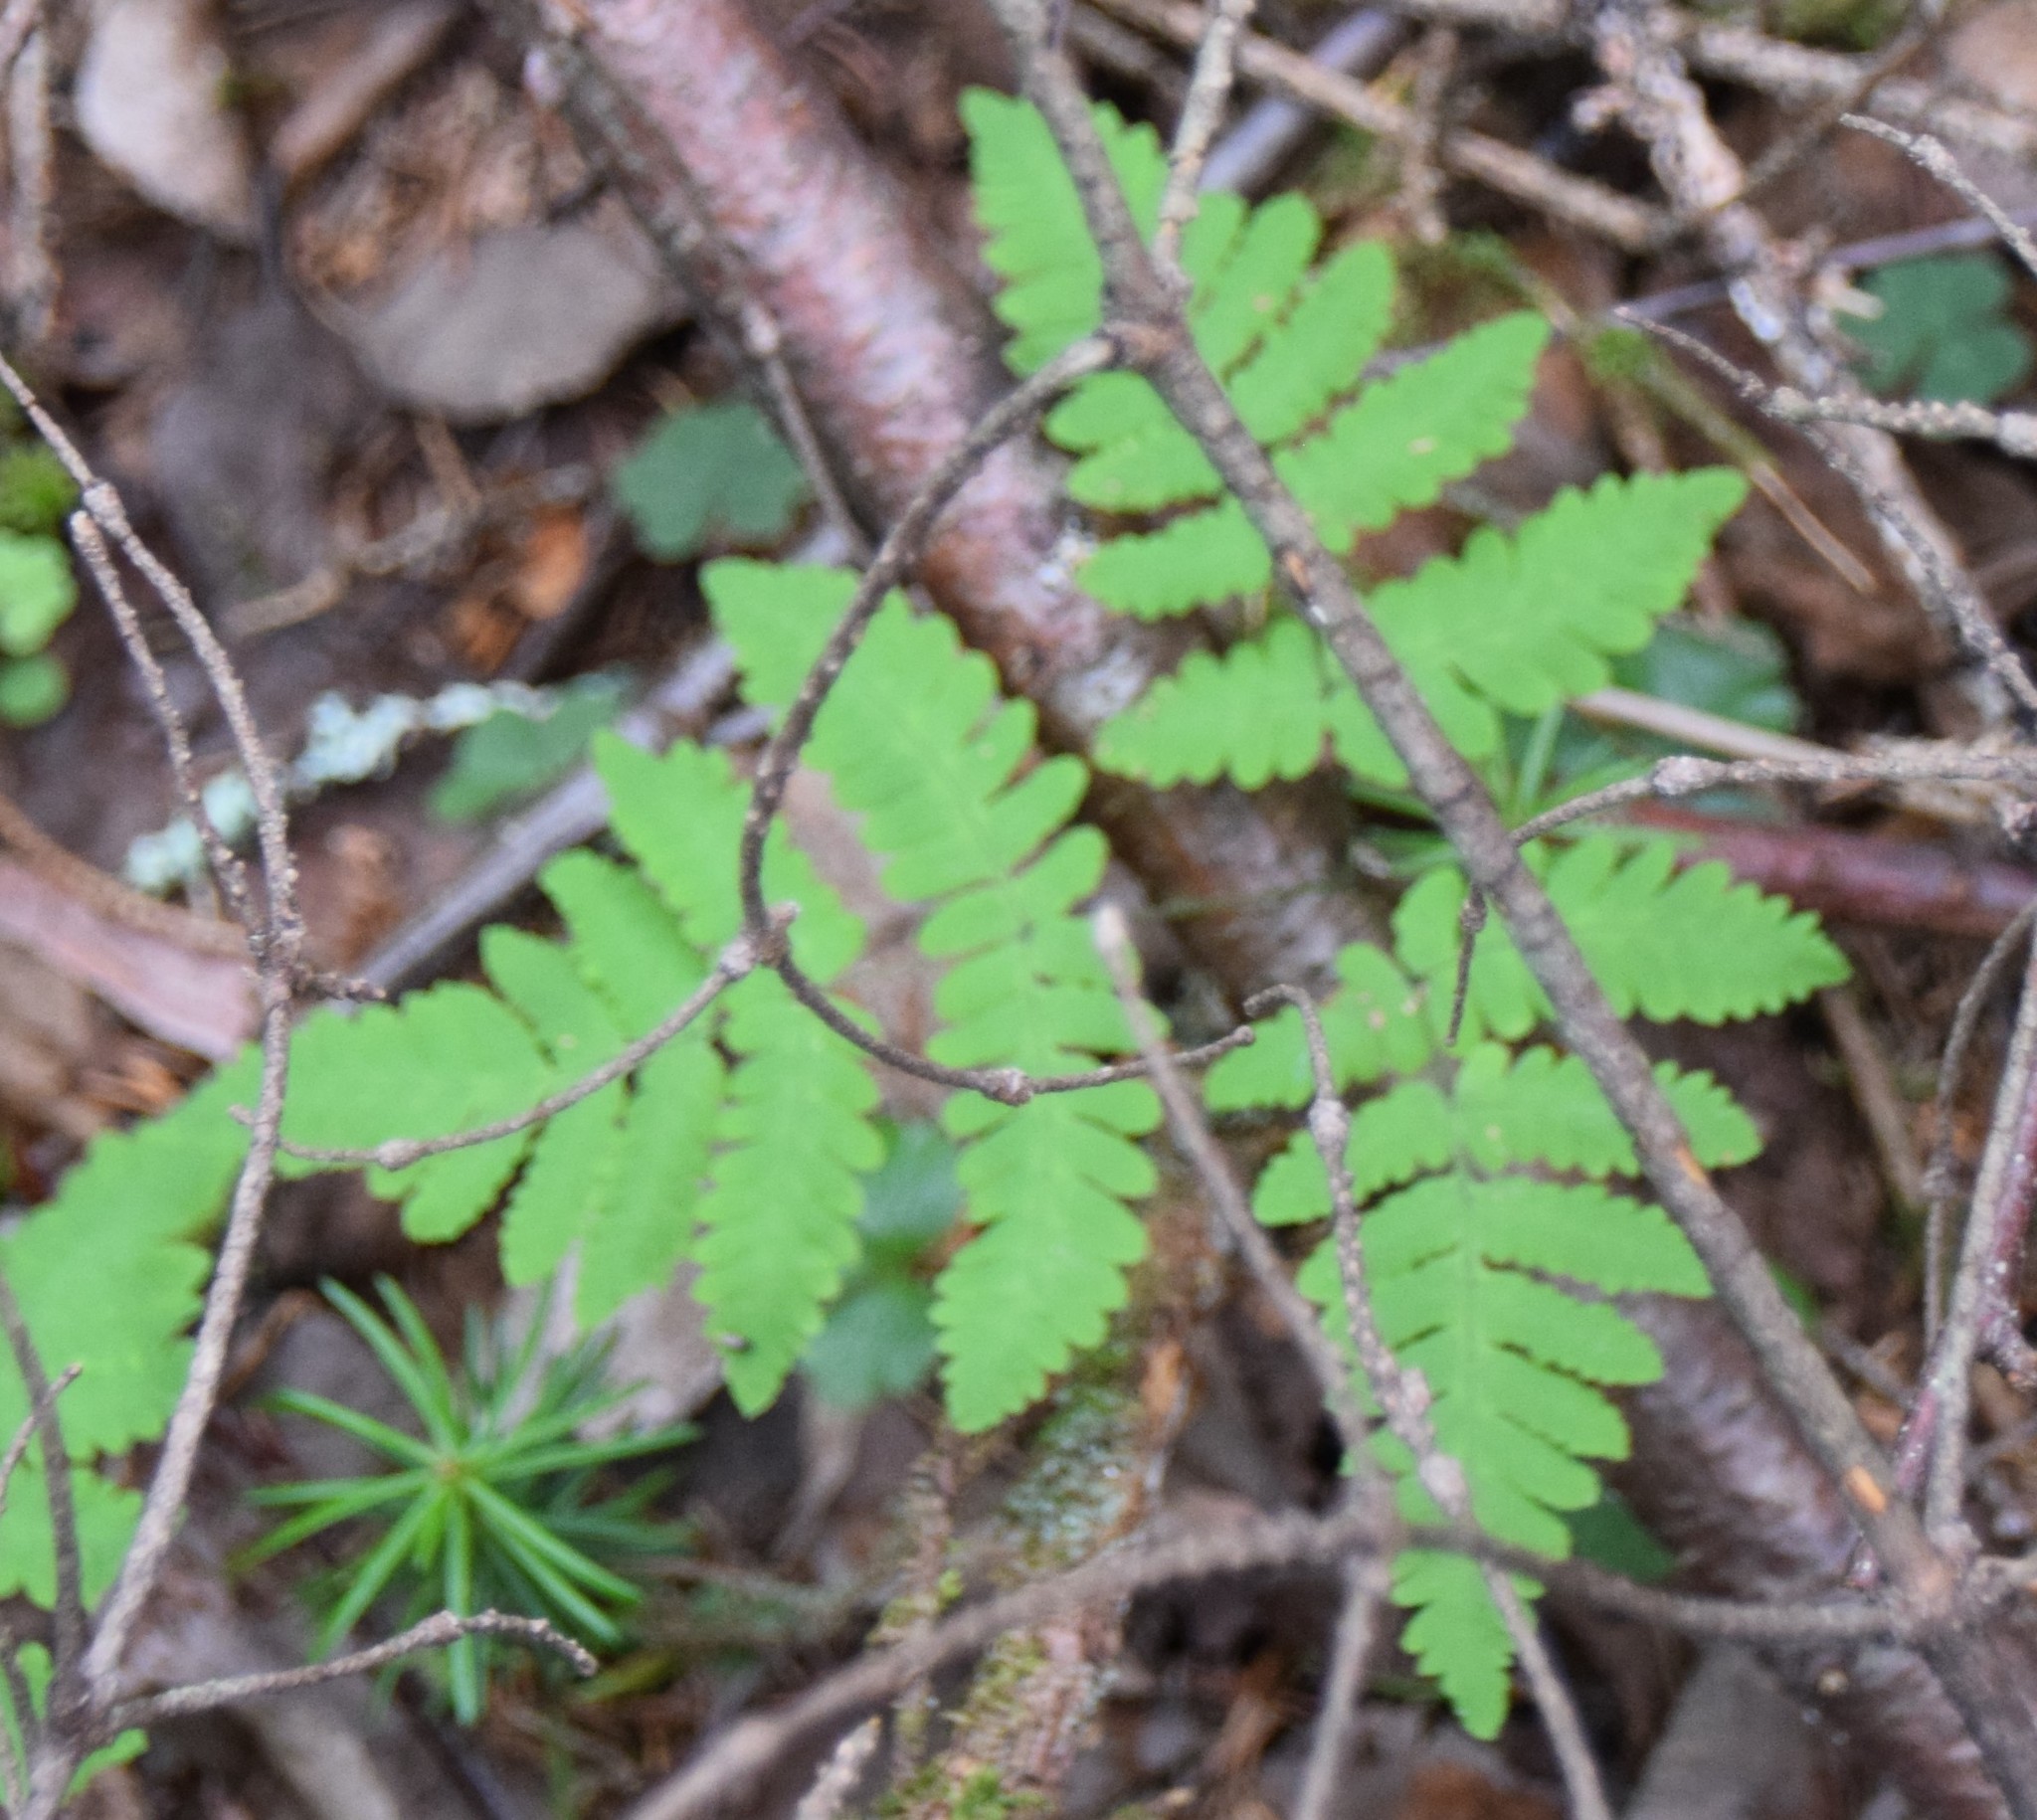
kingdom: Plantae
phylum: Tracheophyta
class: Polypodiopsida
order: Polypodiales
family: Cystopteridaceae
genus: Gymnocarpium
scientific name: Gymnocarpium dryopteris
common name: Oak fern
